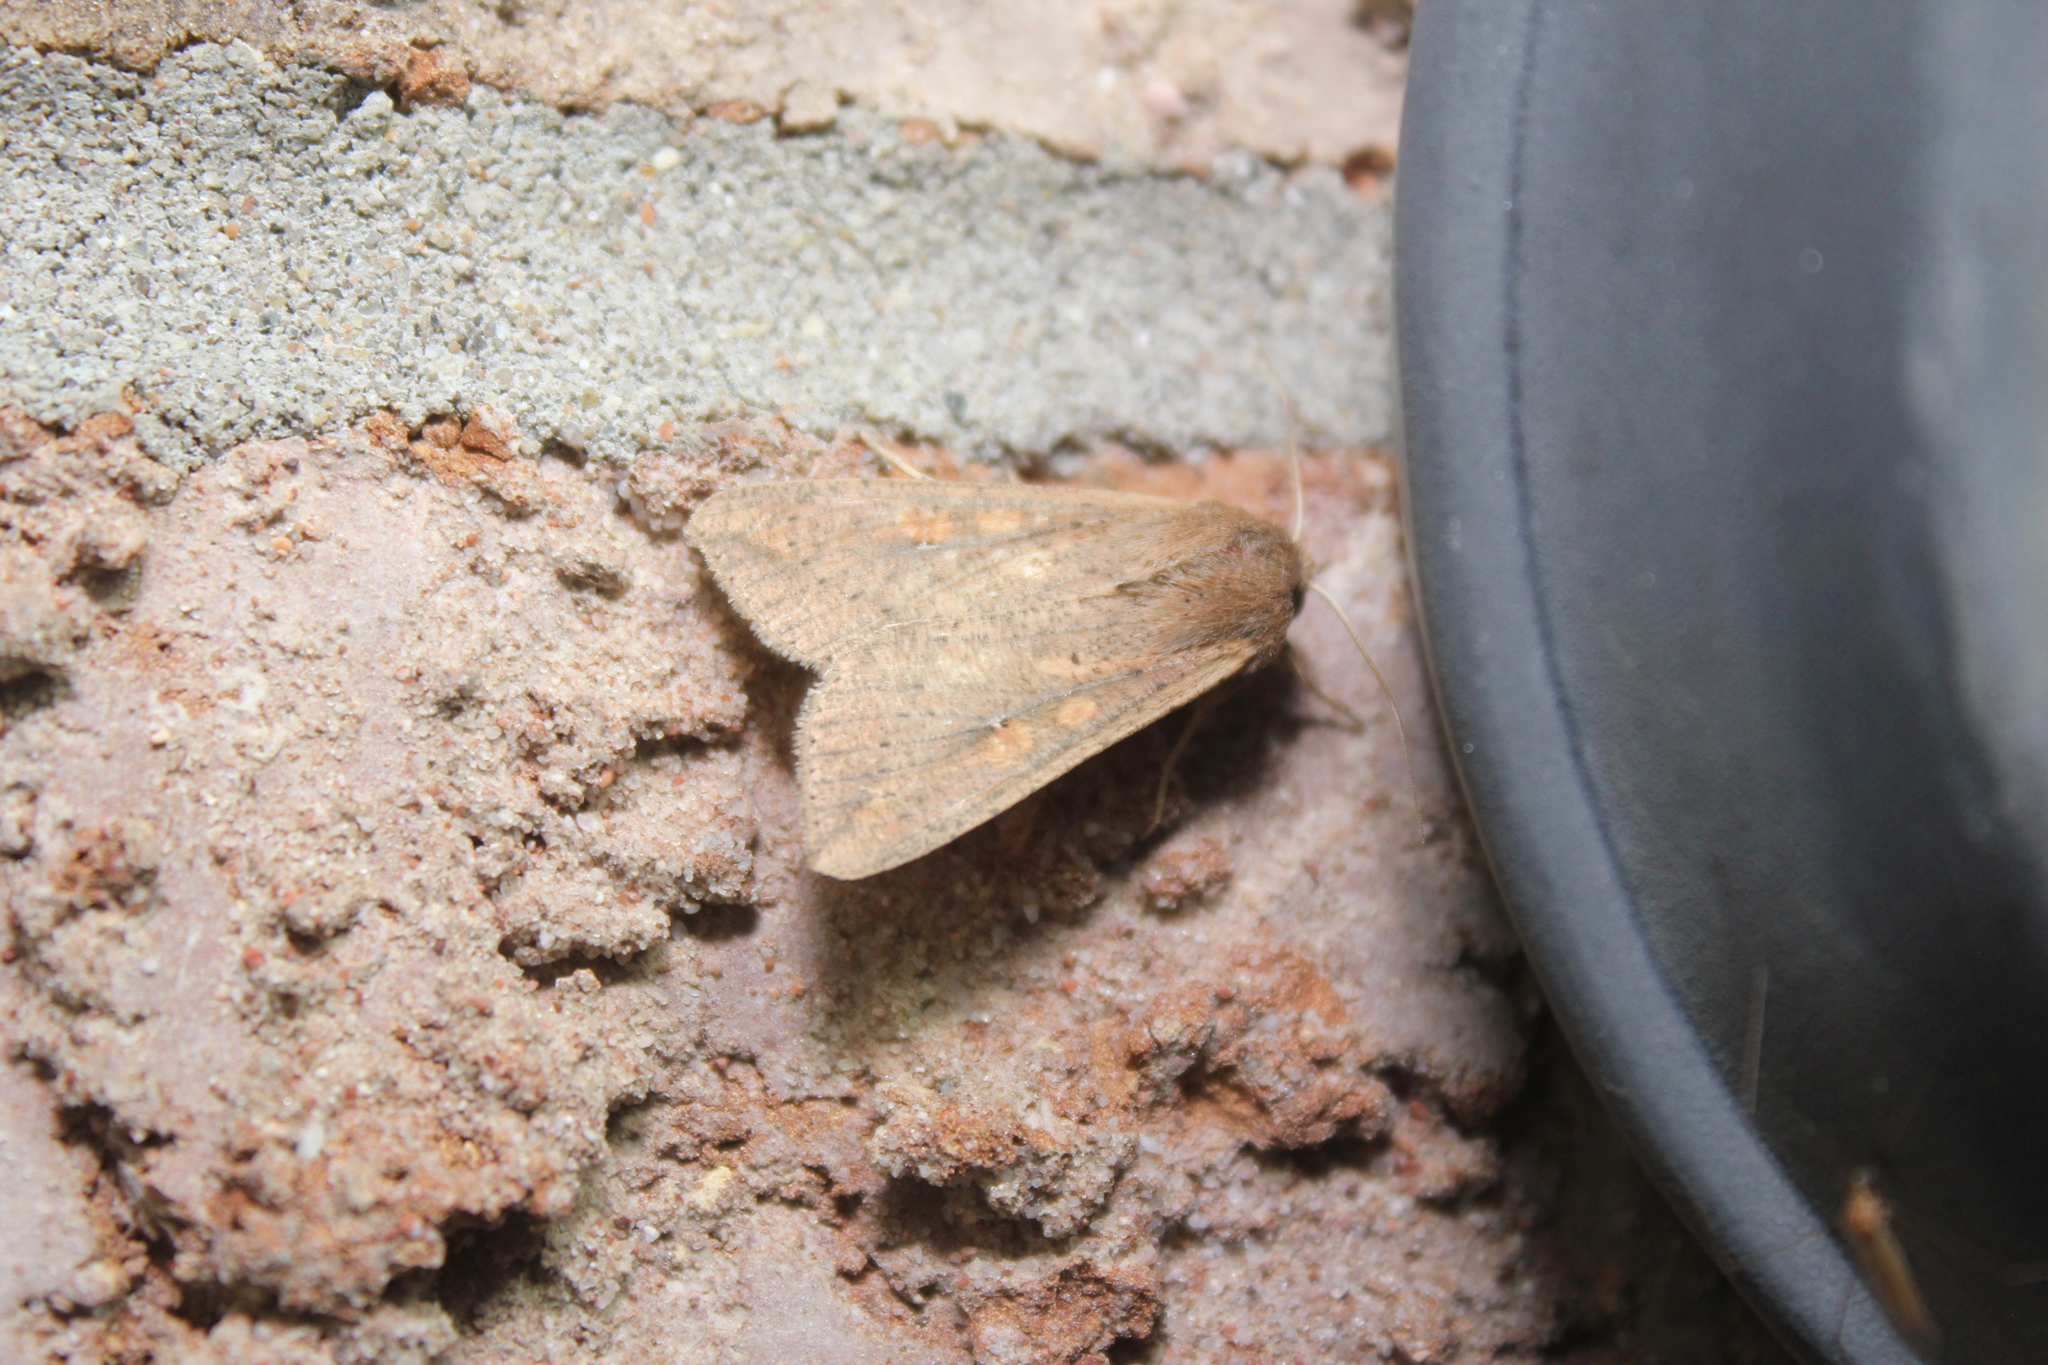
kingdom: Animalia
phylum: Arthropoda
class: Insecta
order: Lepidoptera
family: Noctuidae
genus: Mythimna
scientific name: Mythimna unipuncta
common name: White-speck
